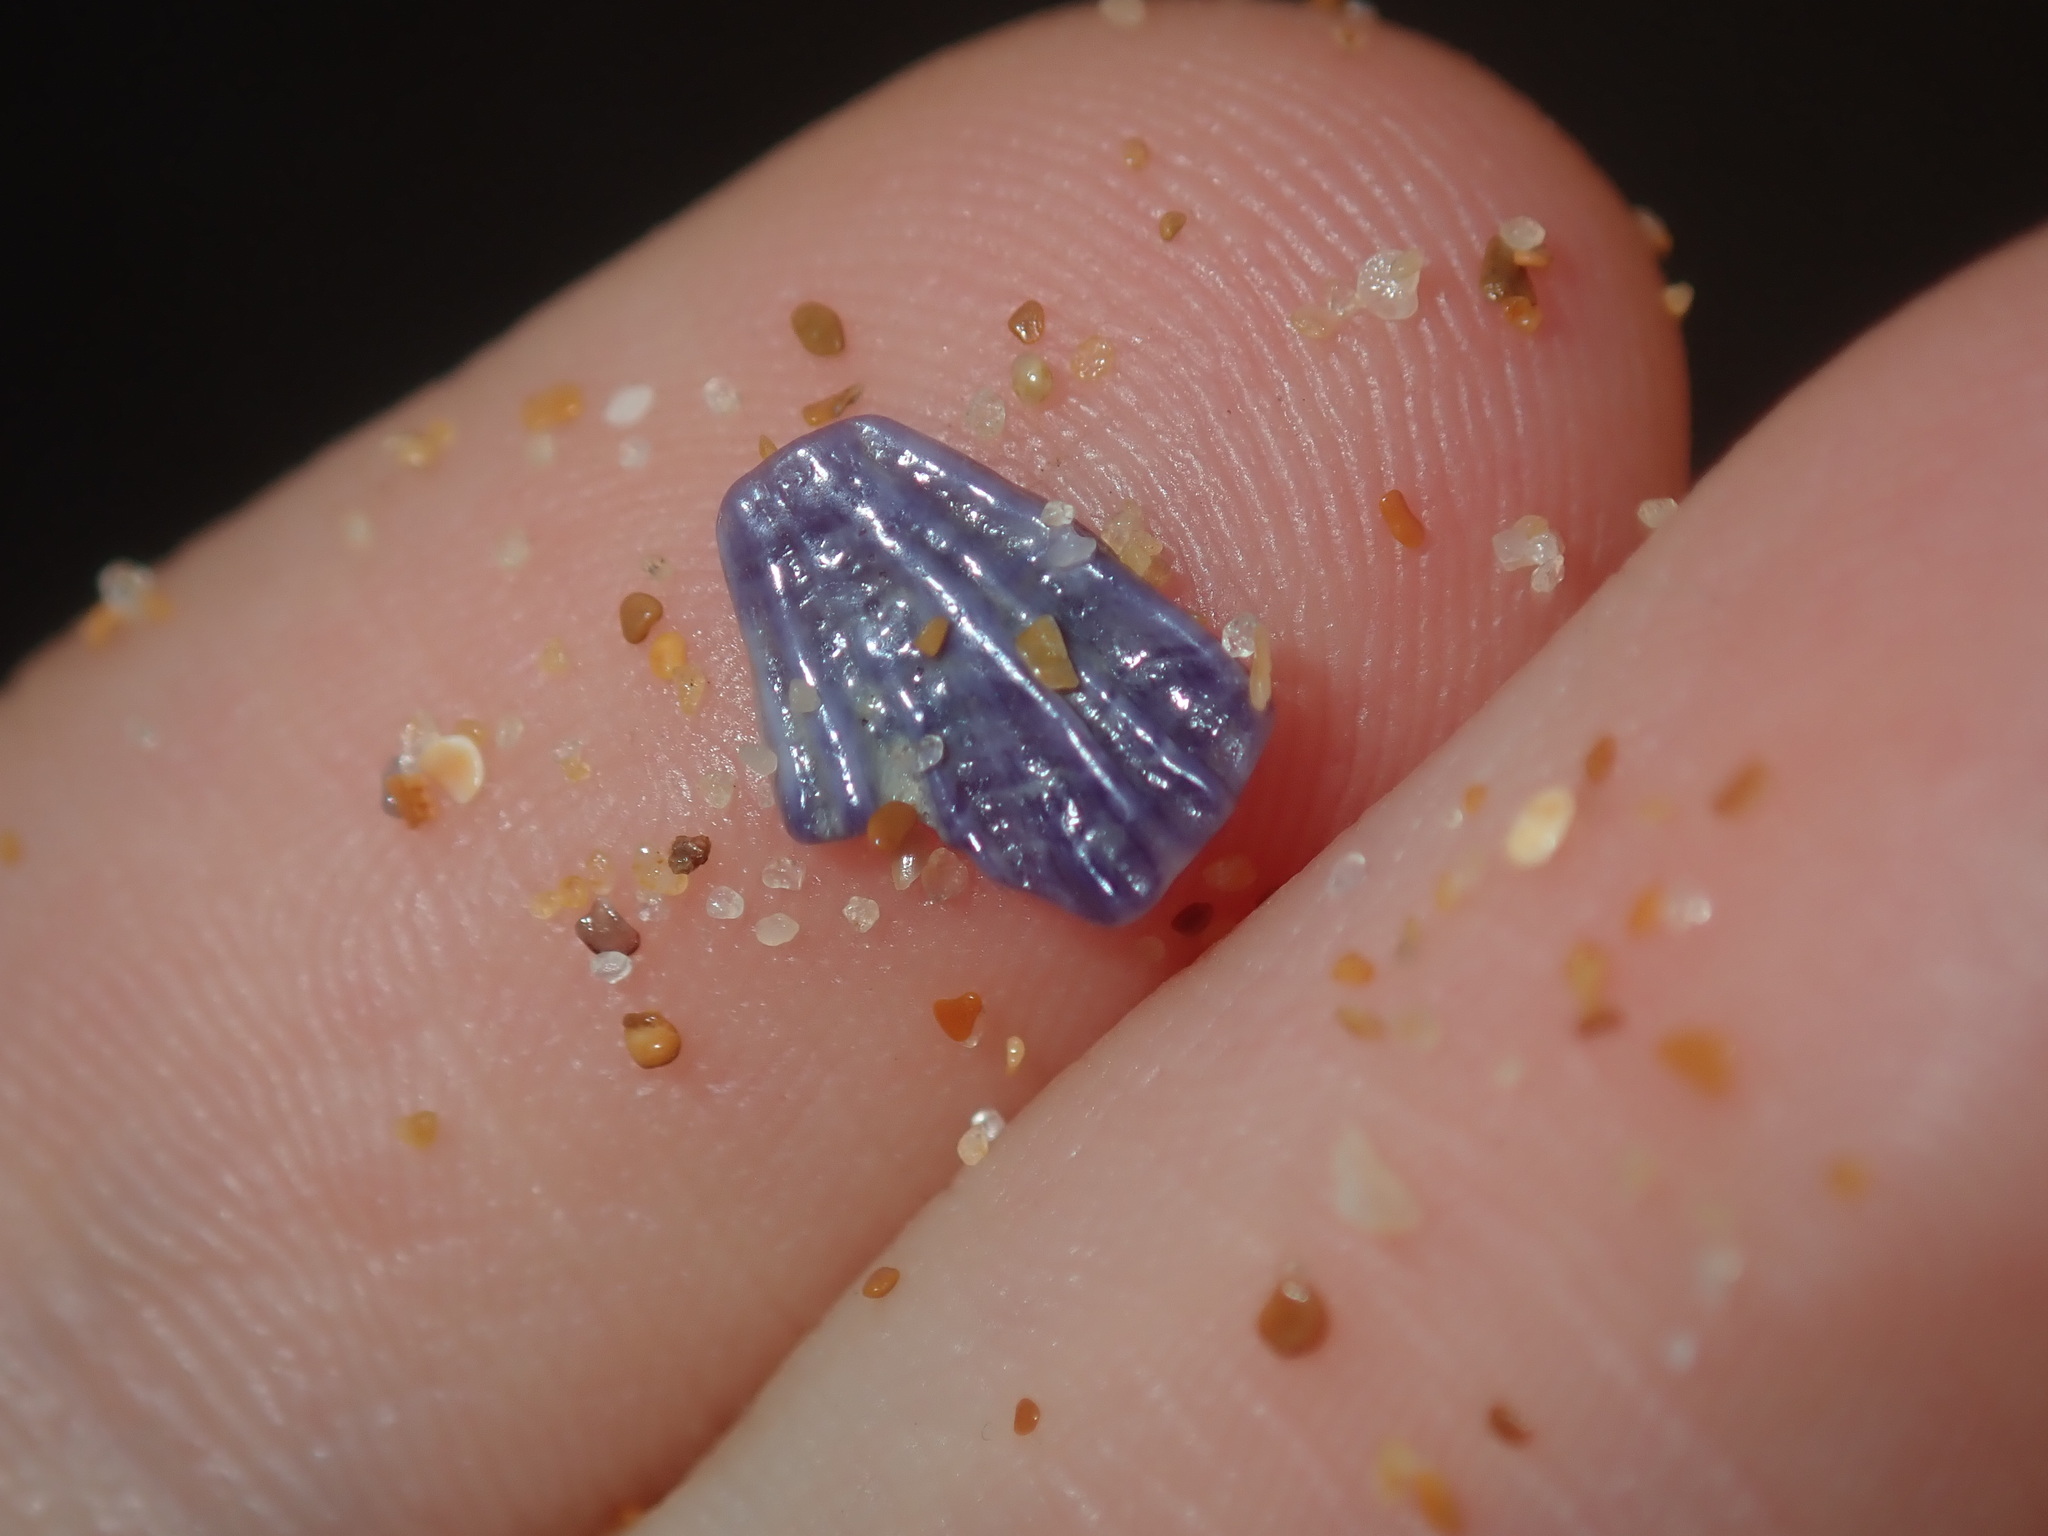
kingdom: Animalia
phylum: Arthropoda
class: Maxillopoda
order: Sessilia
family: Austrobalanidae
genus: Austrobalanus
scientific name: Austrobalanus imperator
